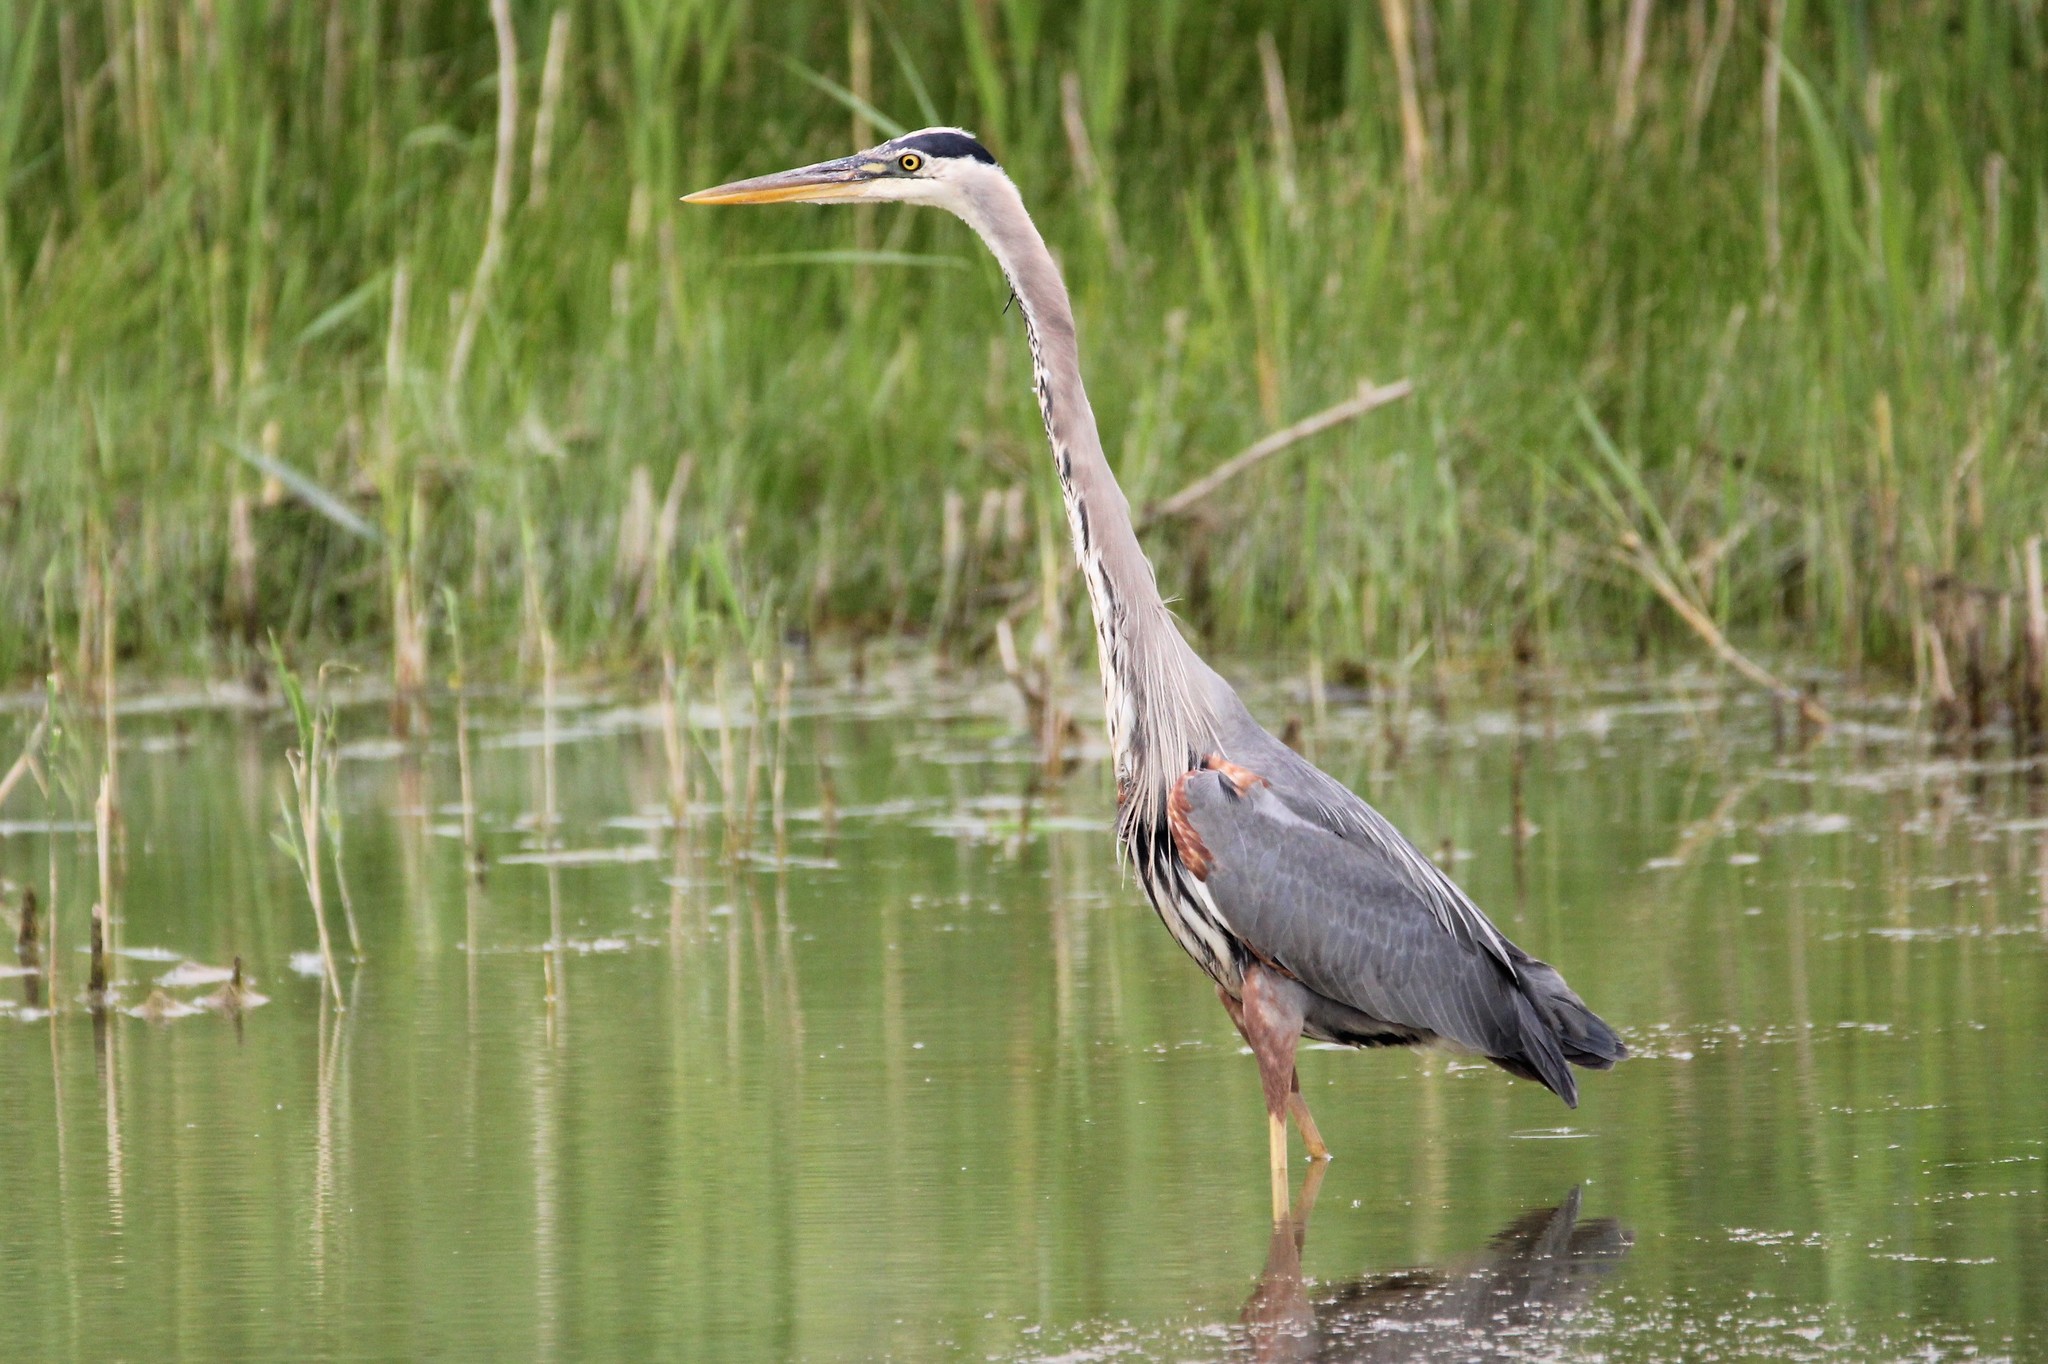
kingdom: Animalia
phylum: Chordata
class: Aves
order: Pelecaniformes
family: Ardeidae
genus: Ardea
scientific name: Ardea herodias
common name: Great blue heron
